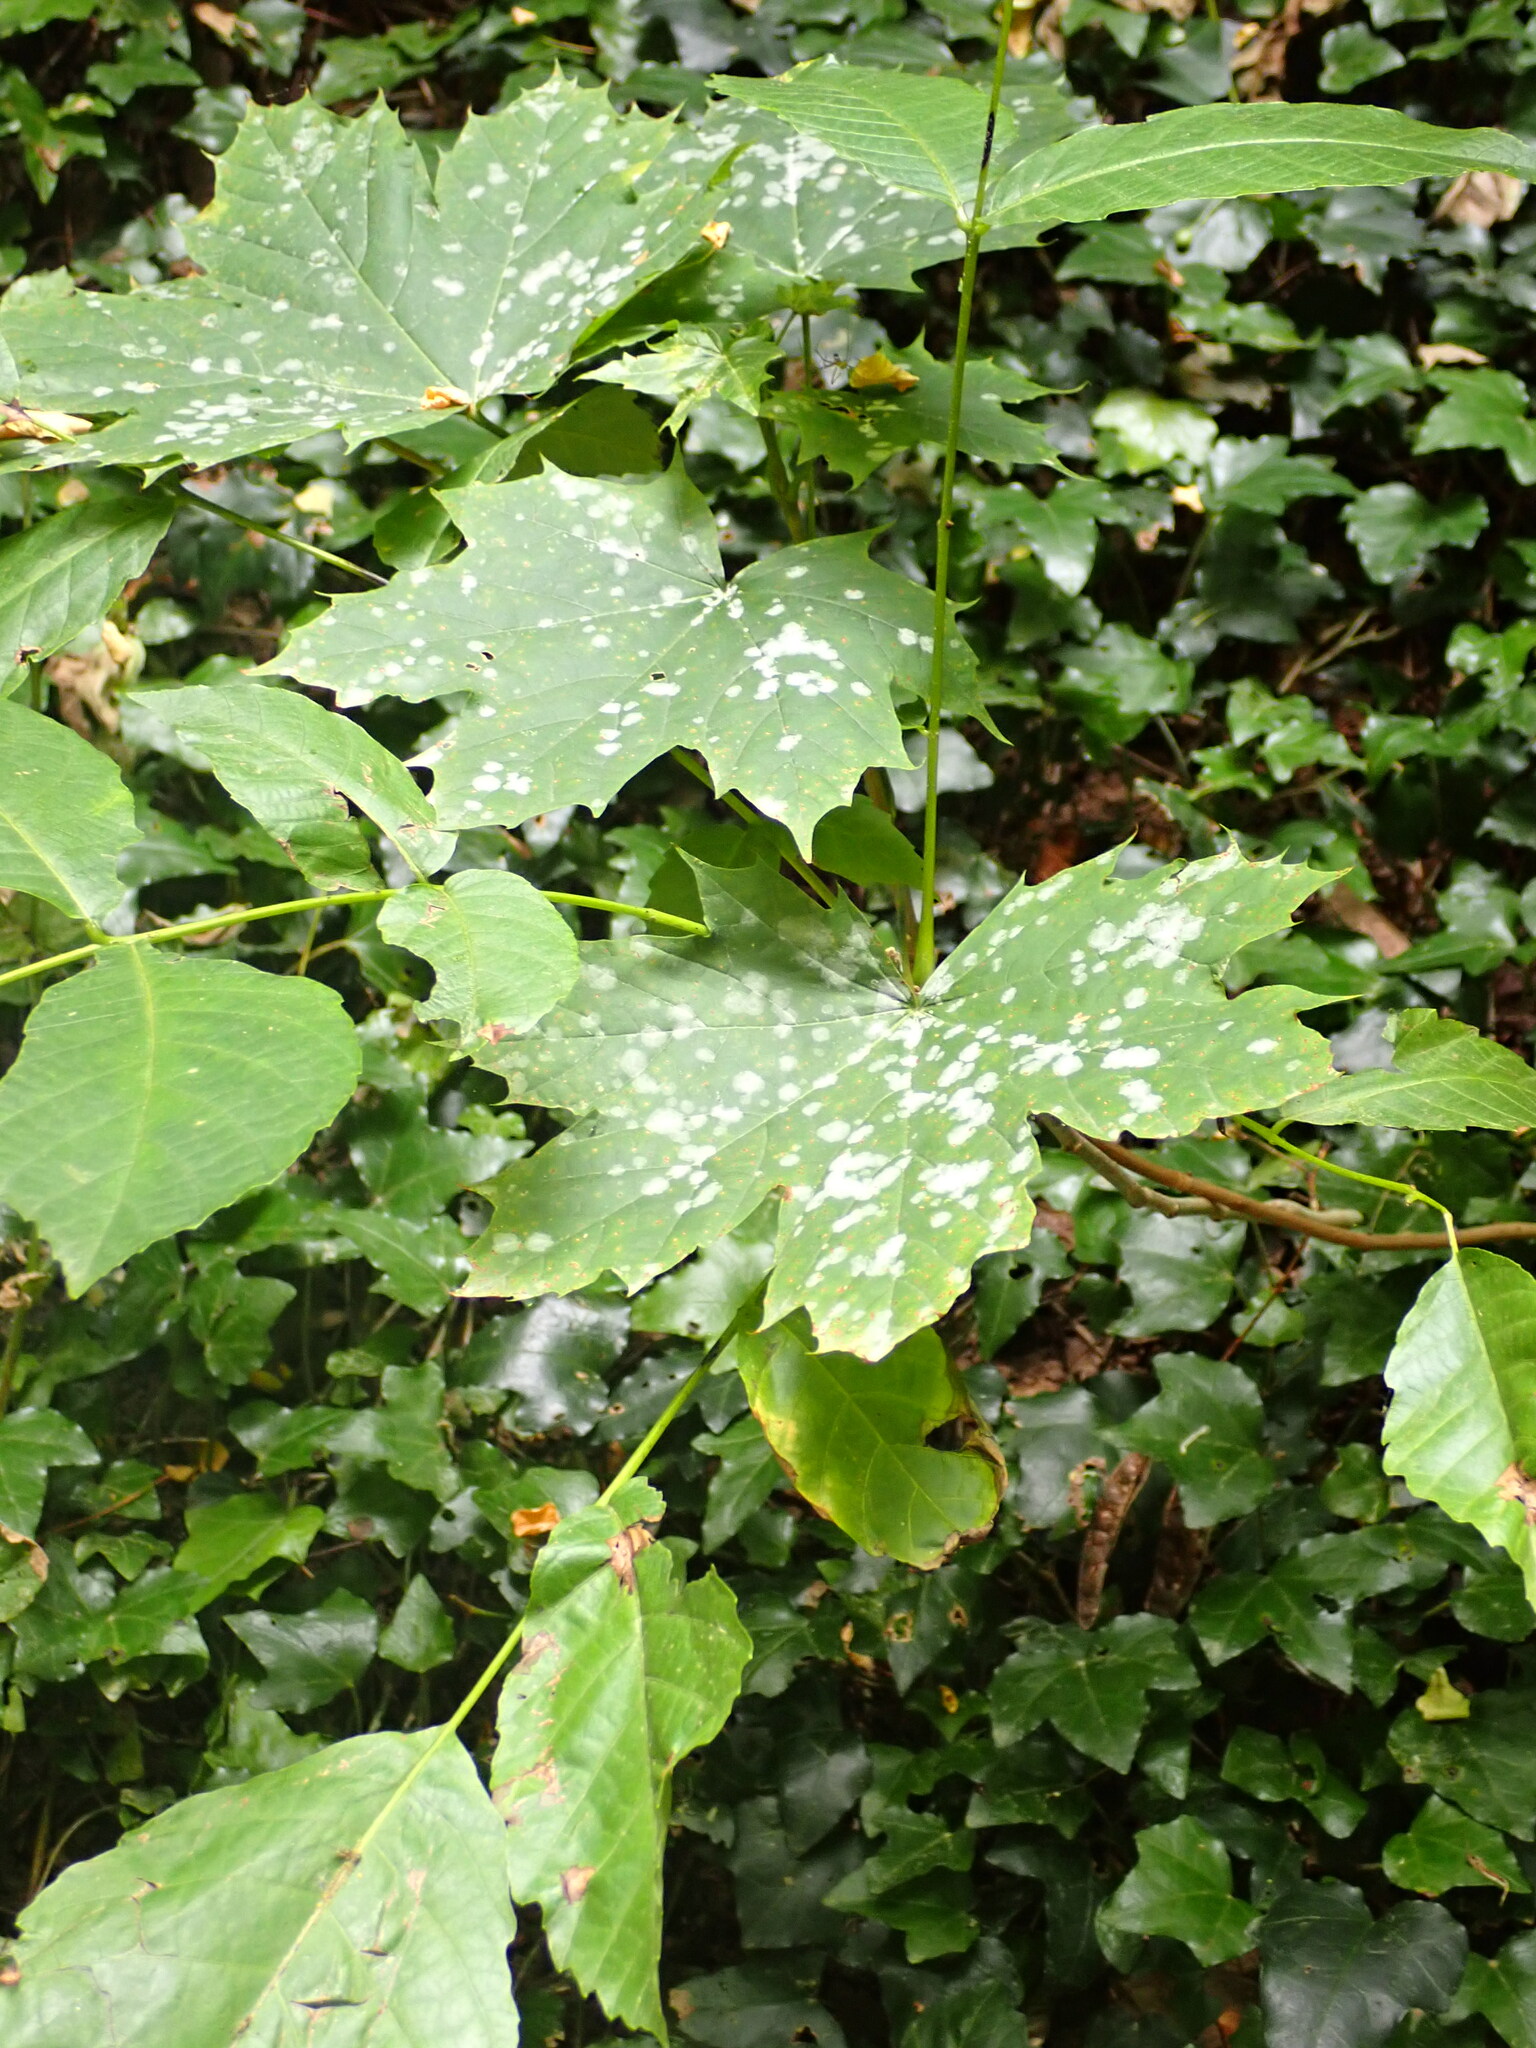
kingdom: Plantae
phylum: Tracheophyta
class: Magnoliopsida
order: Sapindales
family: Sapindaceae
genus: Acer
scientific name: Acer platanoides
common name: Norway maple
